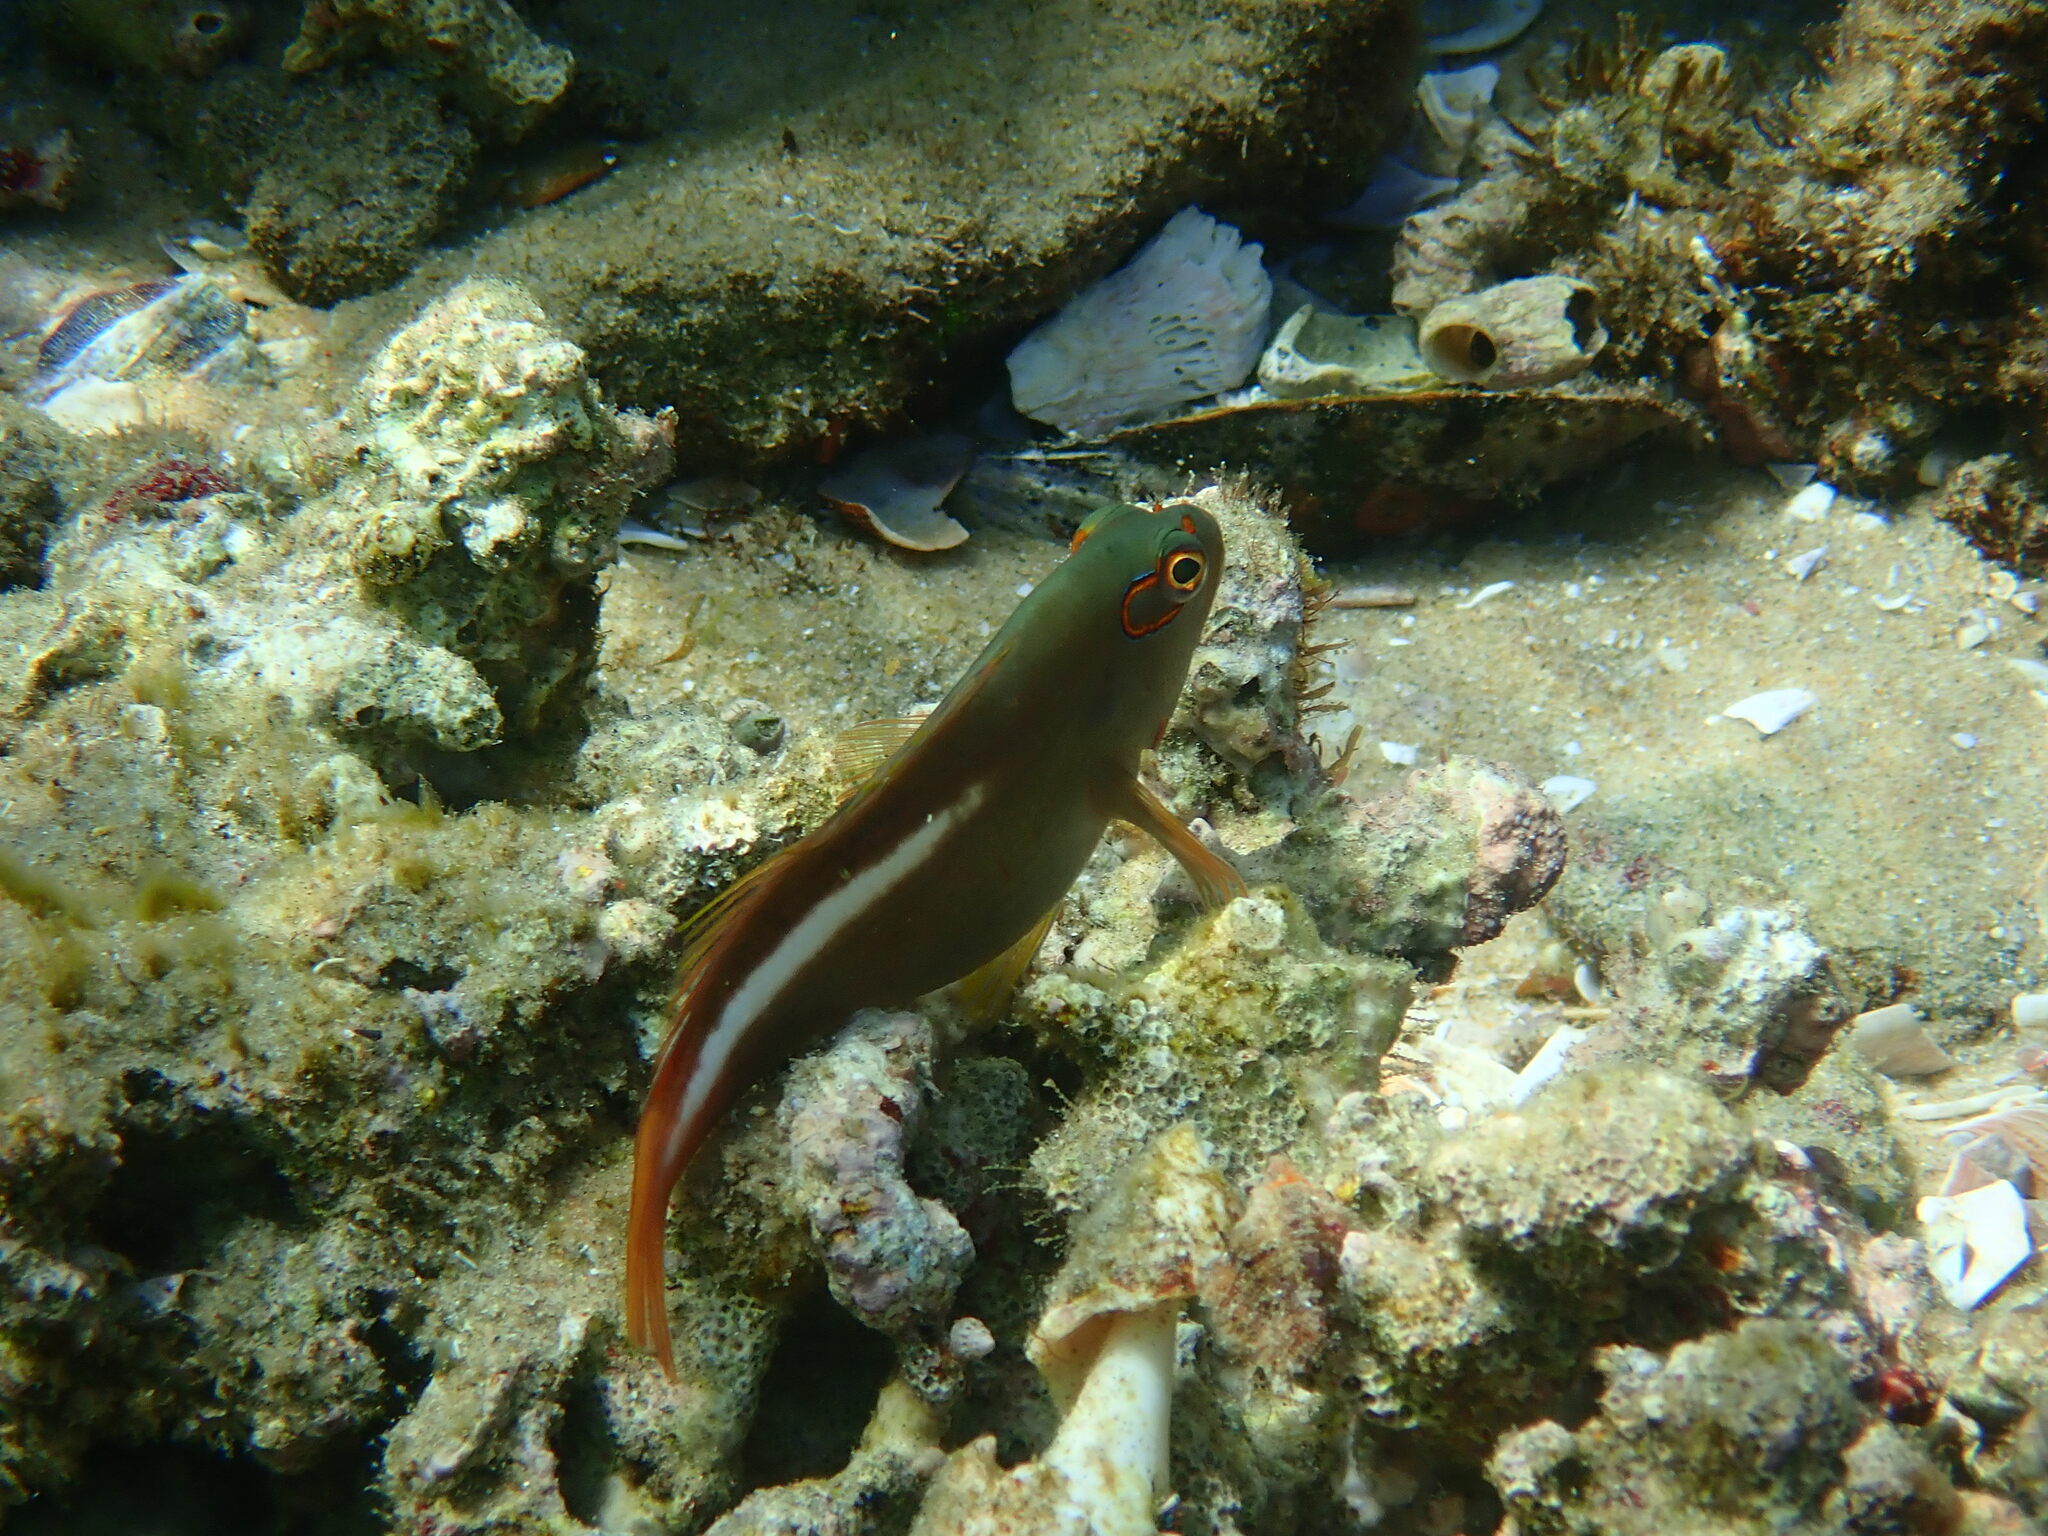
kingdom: Animalia
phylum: Chordata
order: Perciformes
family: Cirrhitidae
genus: Paracirrhites
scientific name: Paracirrhites arcatus
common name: Arc-eye hawkfish
